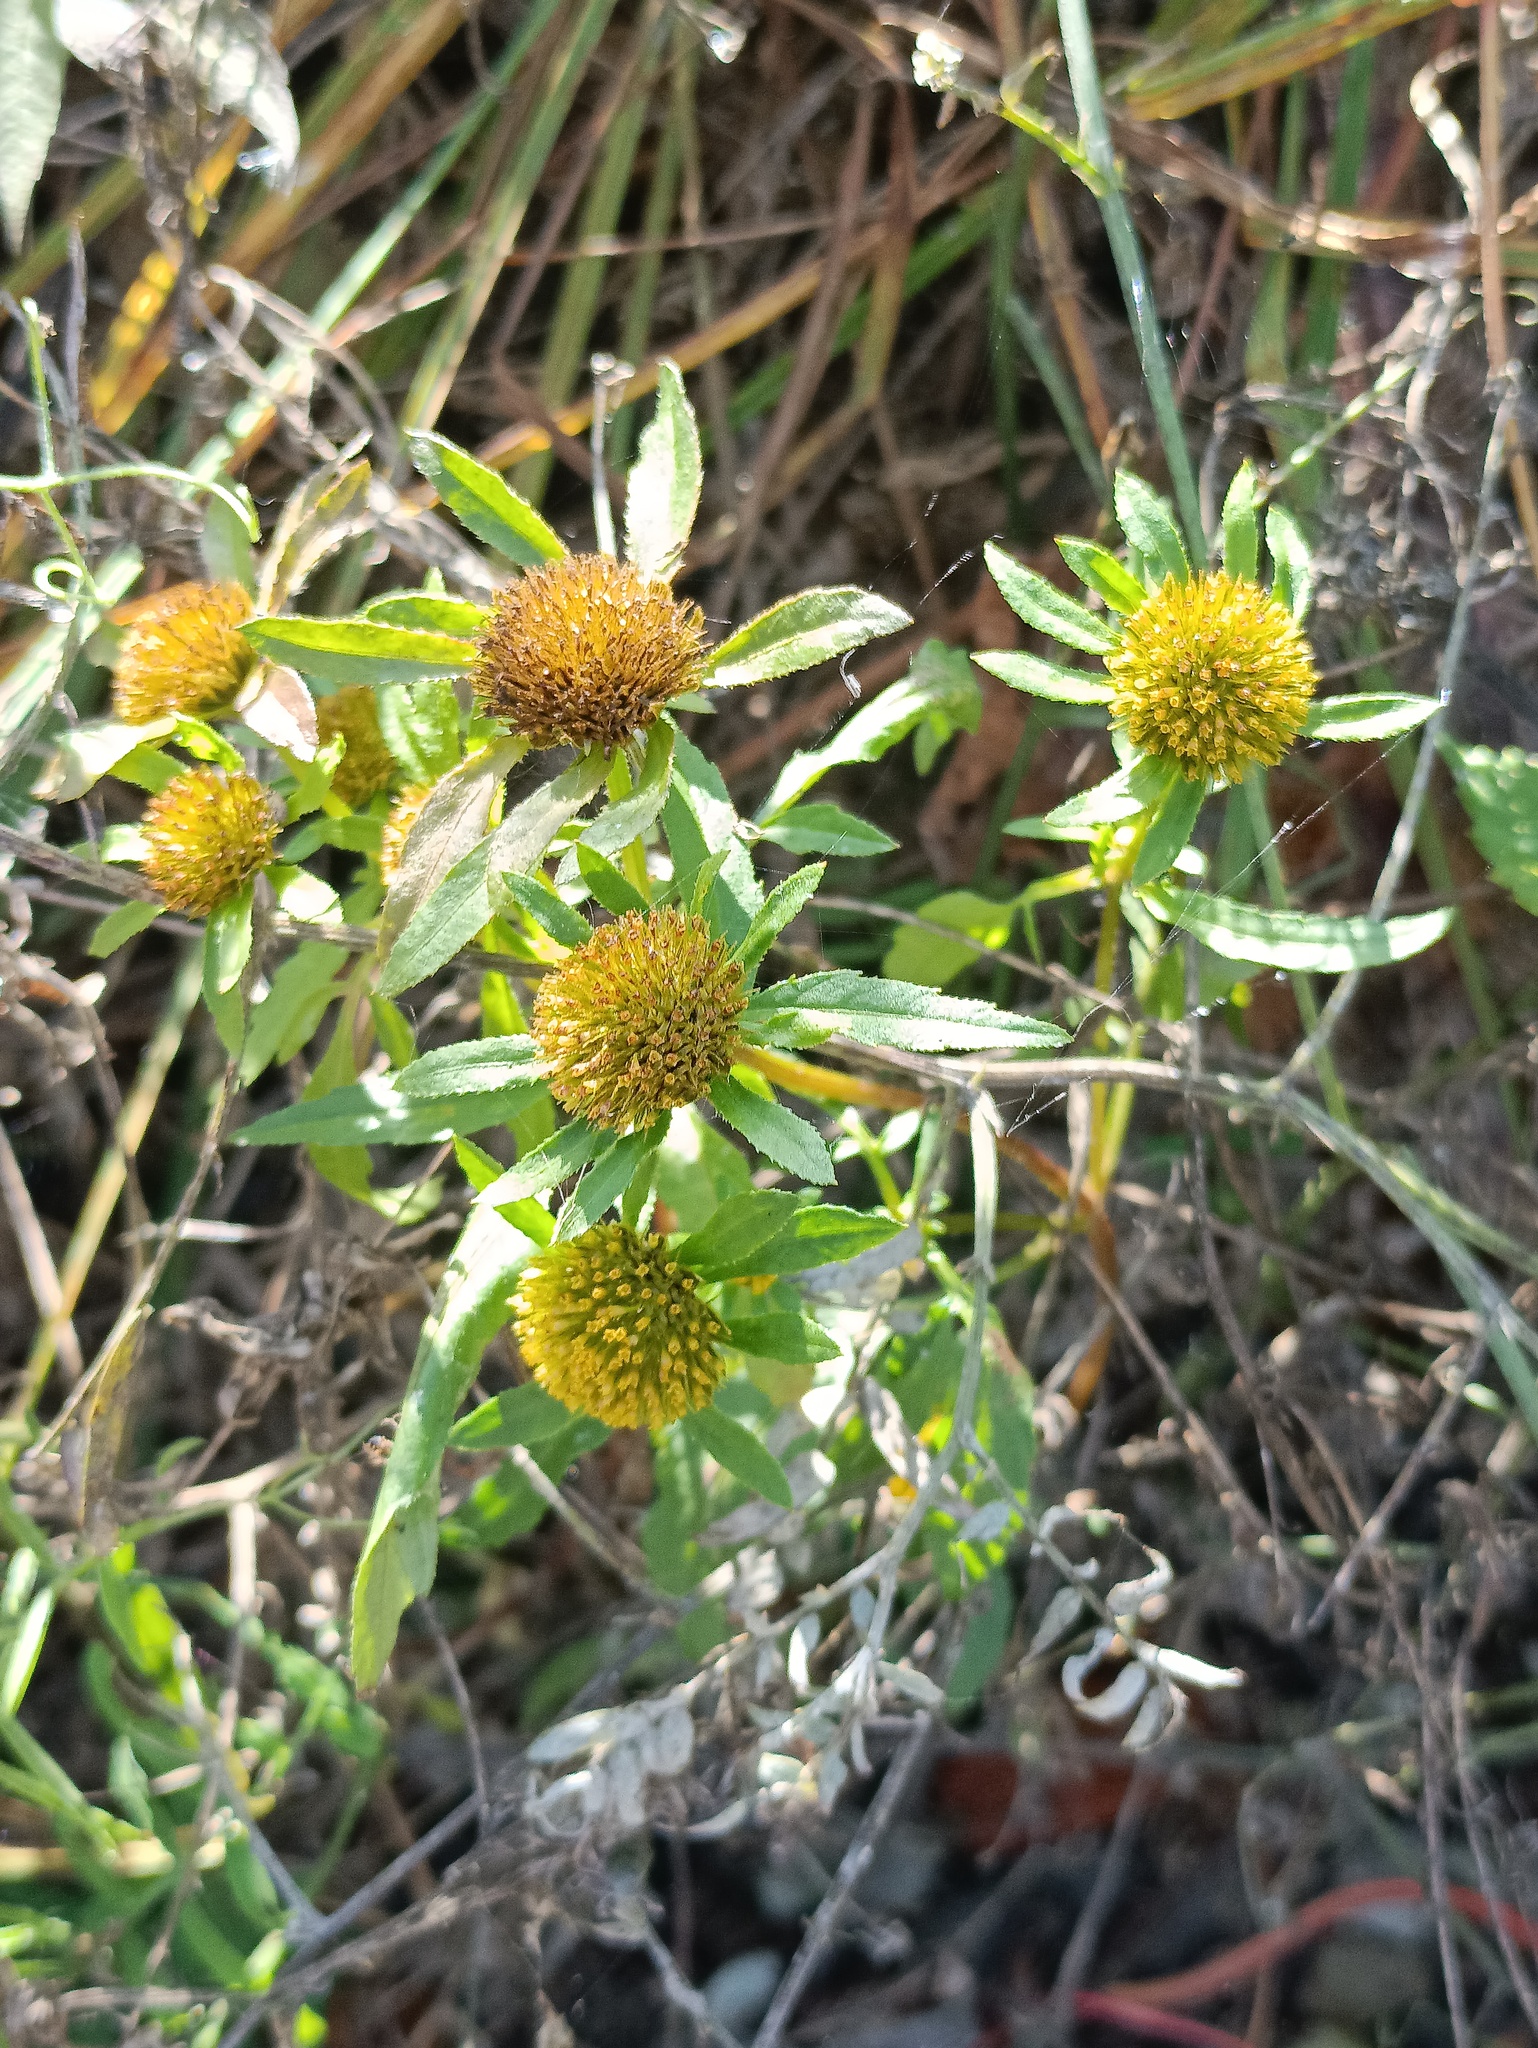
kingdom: Plantae
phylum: Tracheophyta
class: Magnoliopsida
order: Asterales
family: Asteraceae
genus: Bidens
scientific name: Bidens radiata
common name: Radiating bur-marigold
